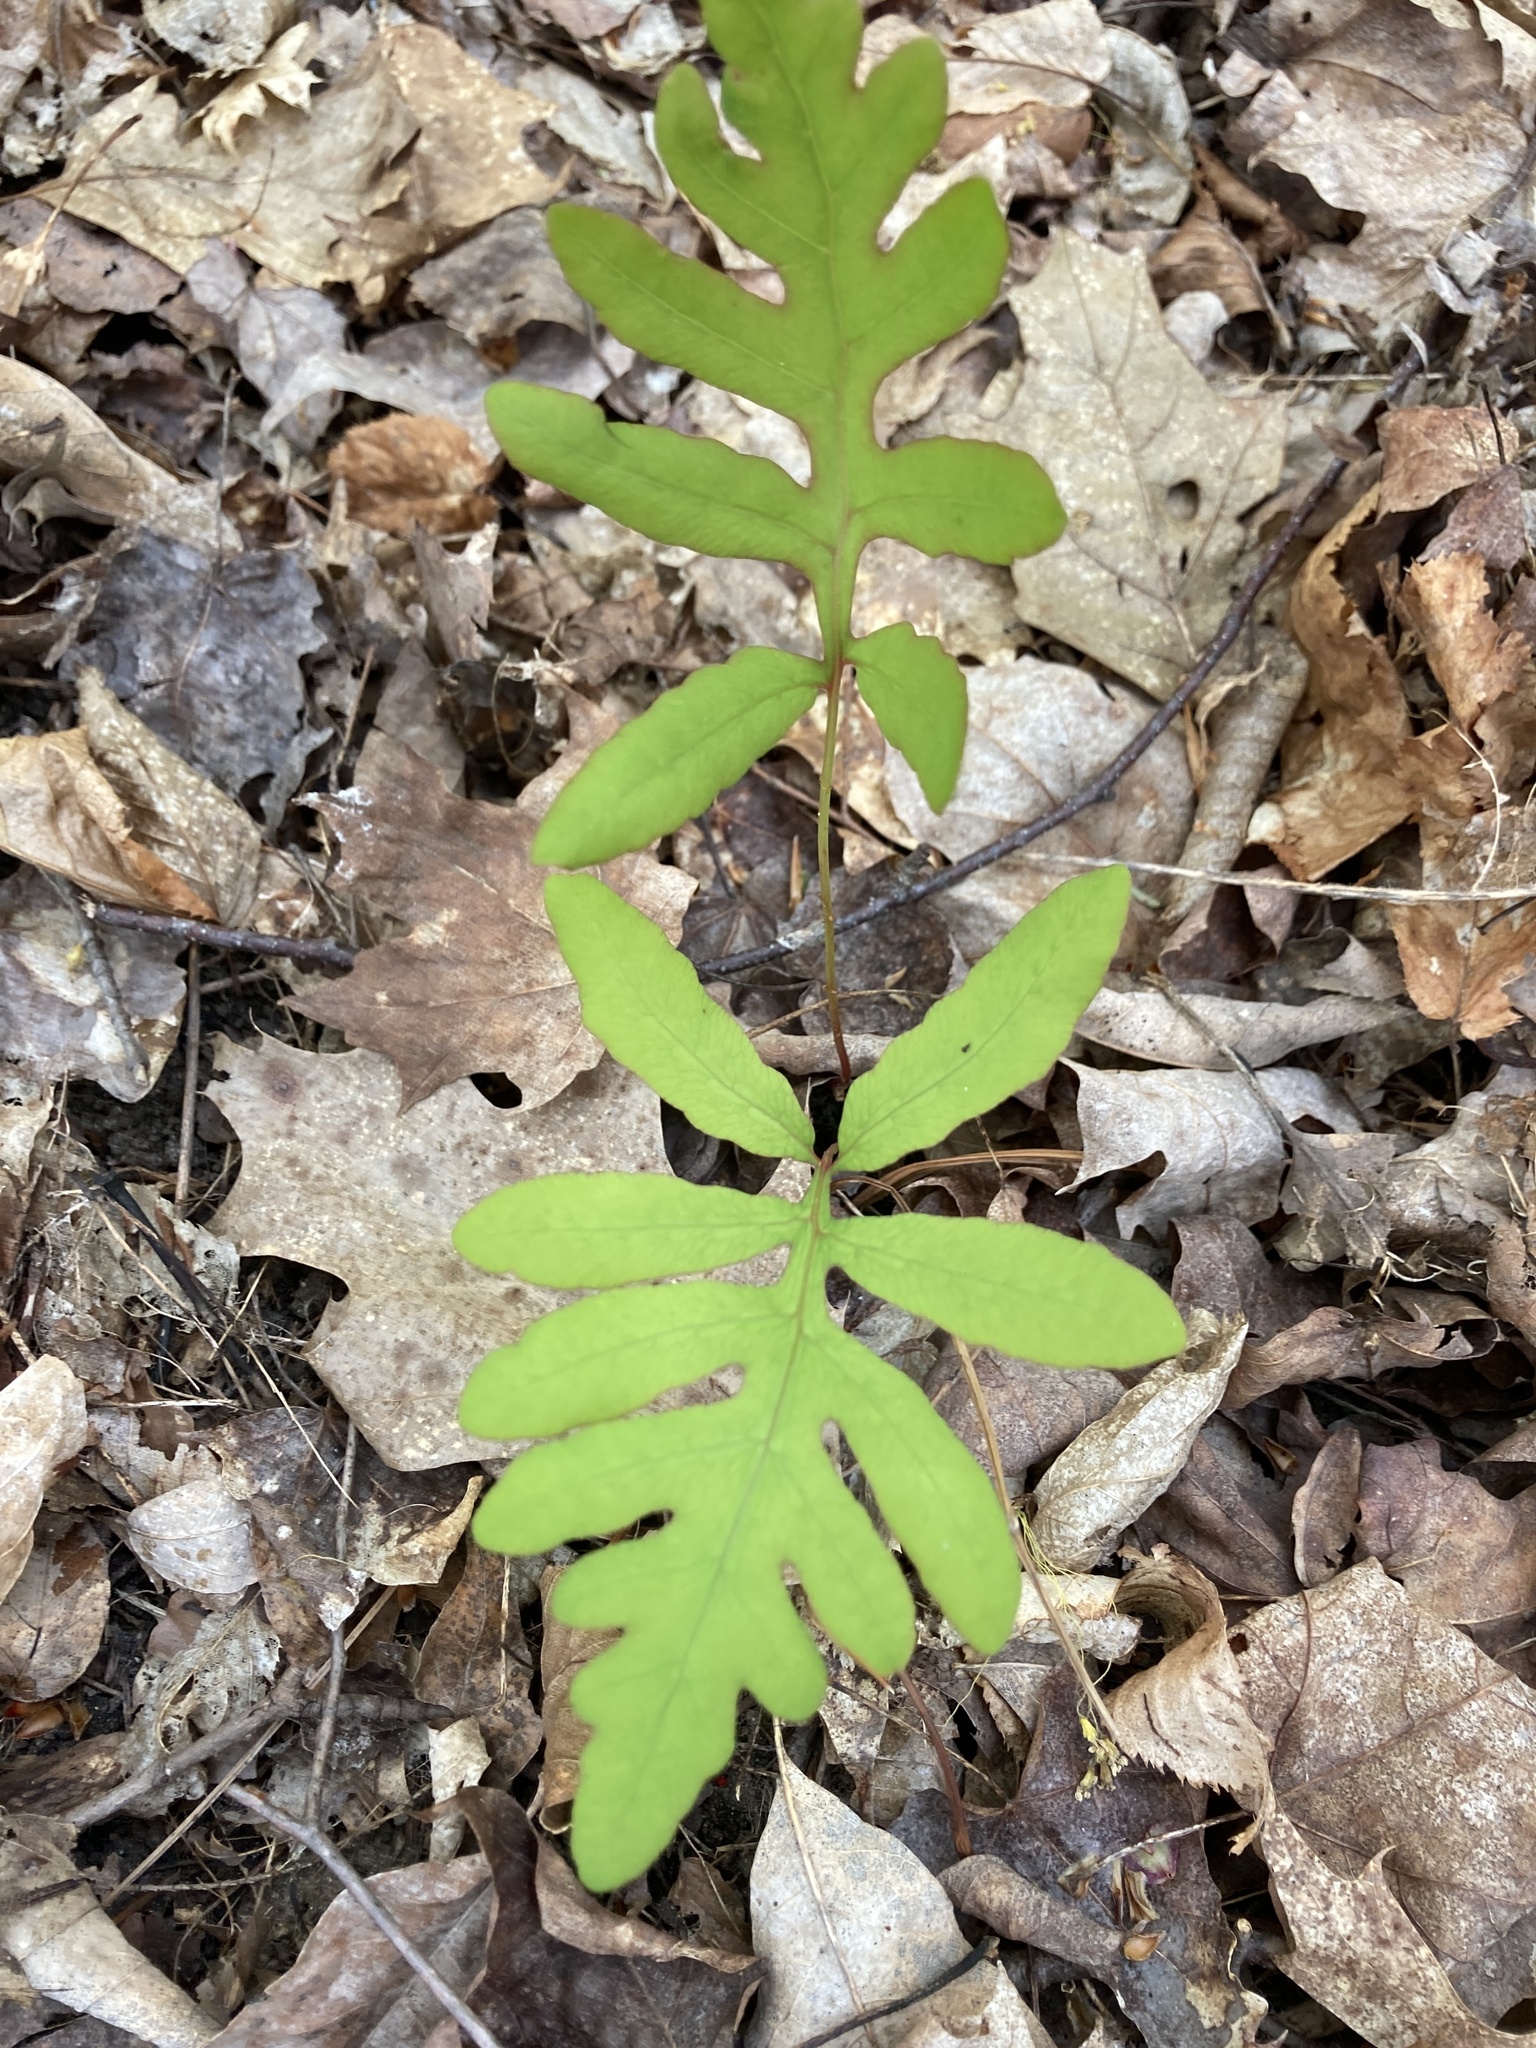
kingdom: Plantae
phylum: Tracheophyta
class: Polypodiopsida
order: Polypodiales
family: Onocleaceae
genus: Onoclea
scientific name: Onoclea sensibilis
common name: Sensitive fern
